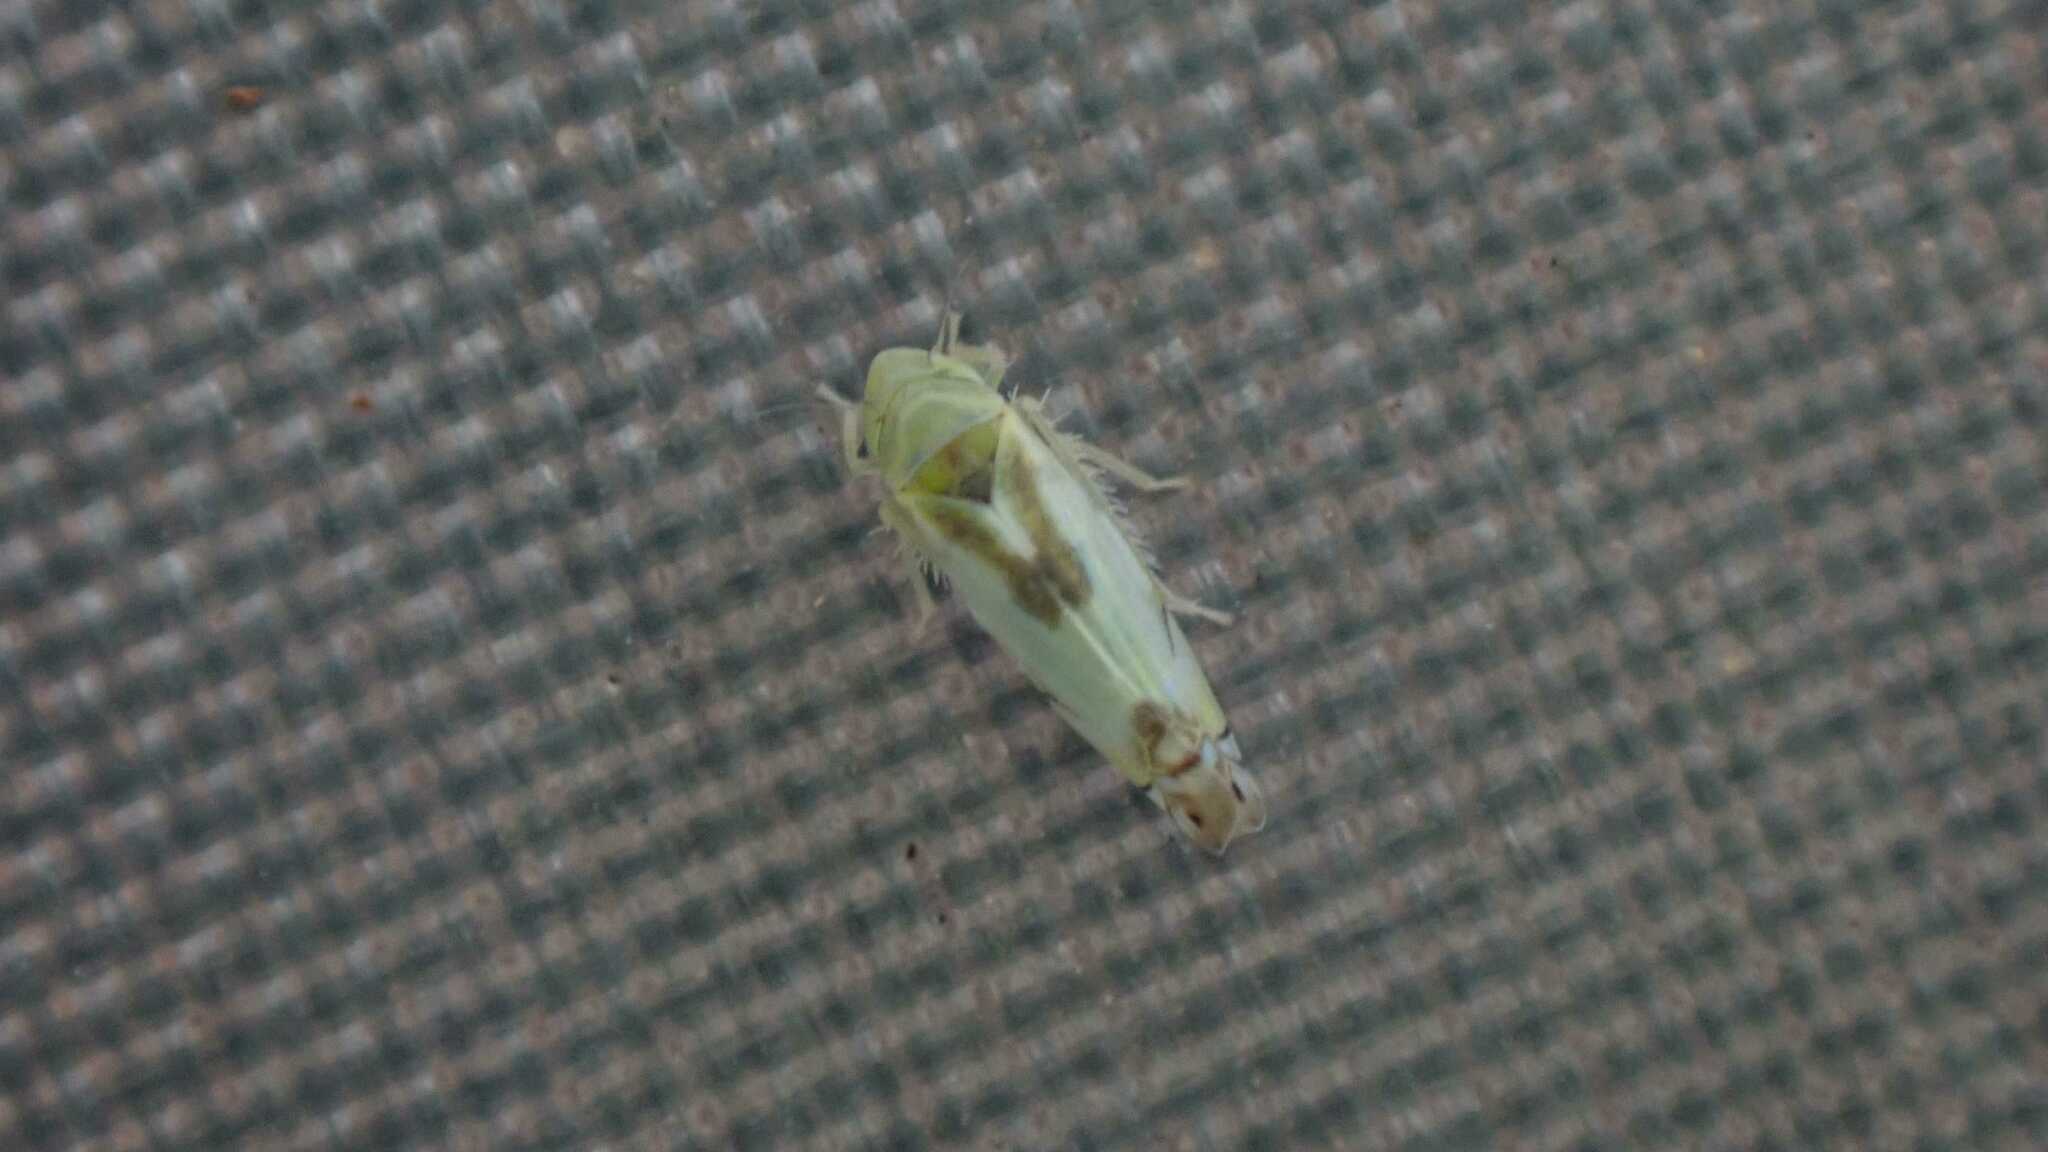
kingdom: Animalia
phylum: Arthropoda
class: Insecta
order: Hemiptera
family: Cicadellidae
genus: Zyginella
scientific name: Zyginella pulchra
